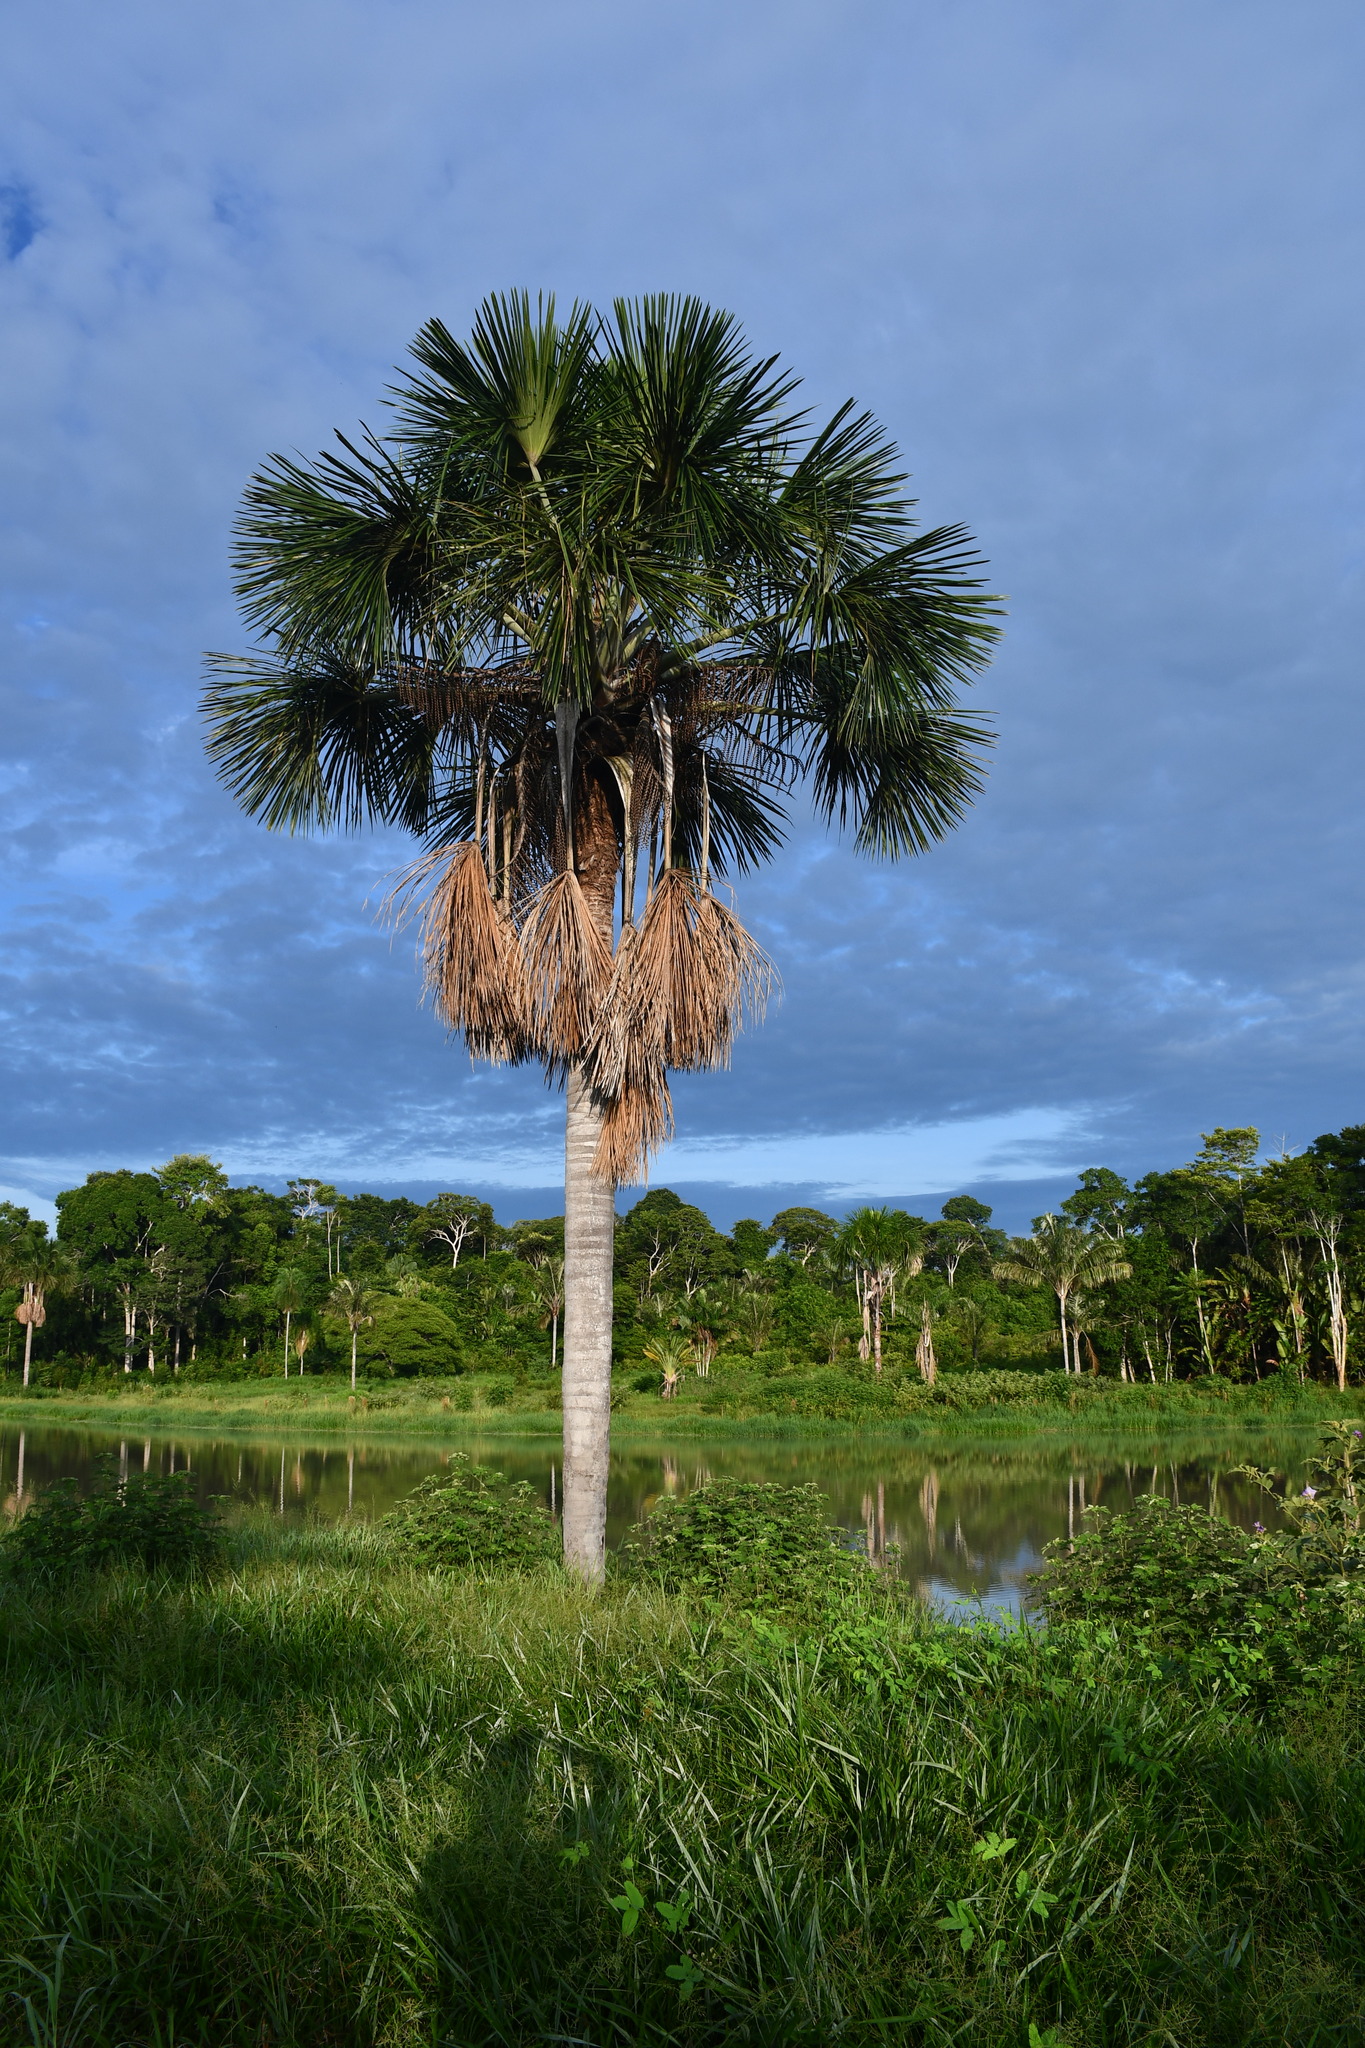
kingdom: Plantae
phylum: Tracheophyta
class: Liliopsida
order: Arecales
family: Arecaceae
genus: Mauritia
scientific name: Mauritia flexuosa
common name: Tree-of-life
